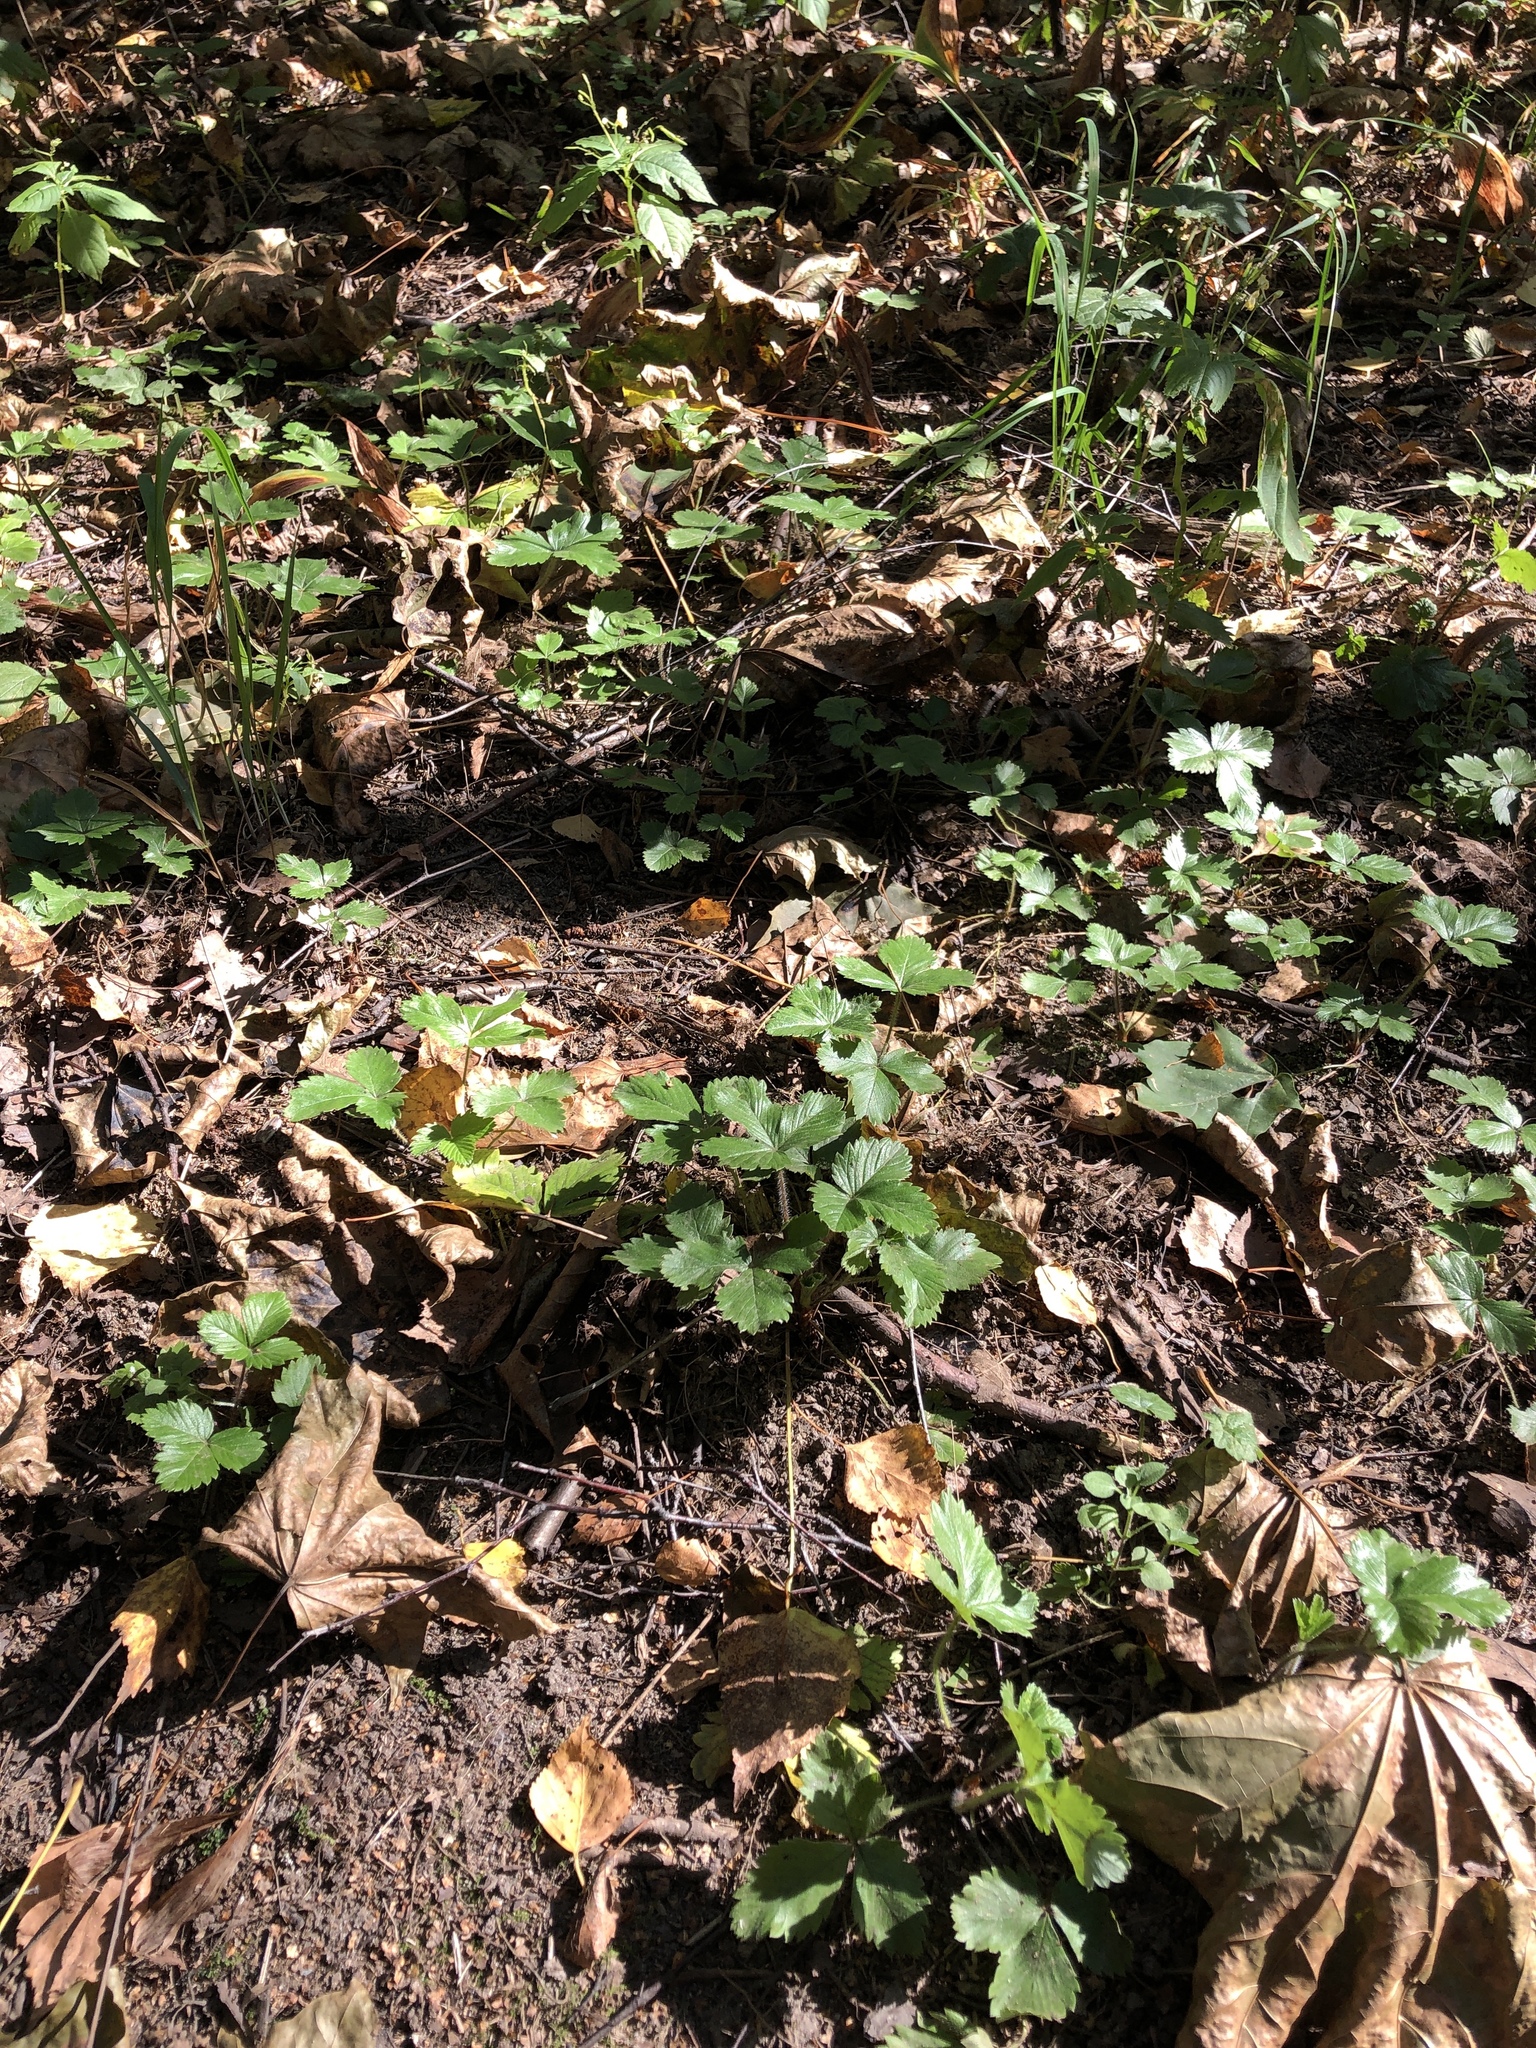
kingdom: Plantae
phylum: Tracheophyta
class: Magnoliopsida
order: Rosales
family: Rosaceae
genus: Fragaria
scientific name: Fragaria vesca
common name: Wild strawberry
